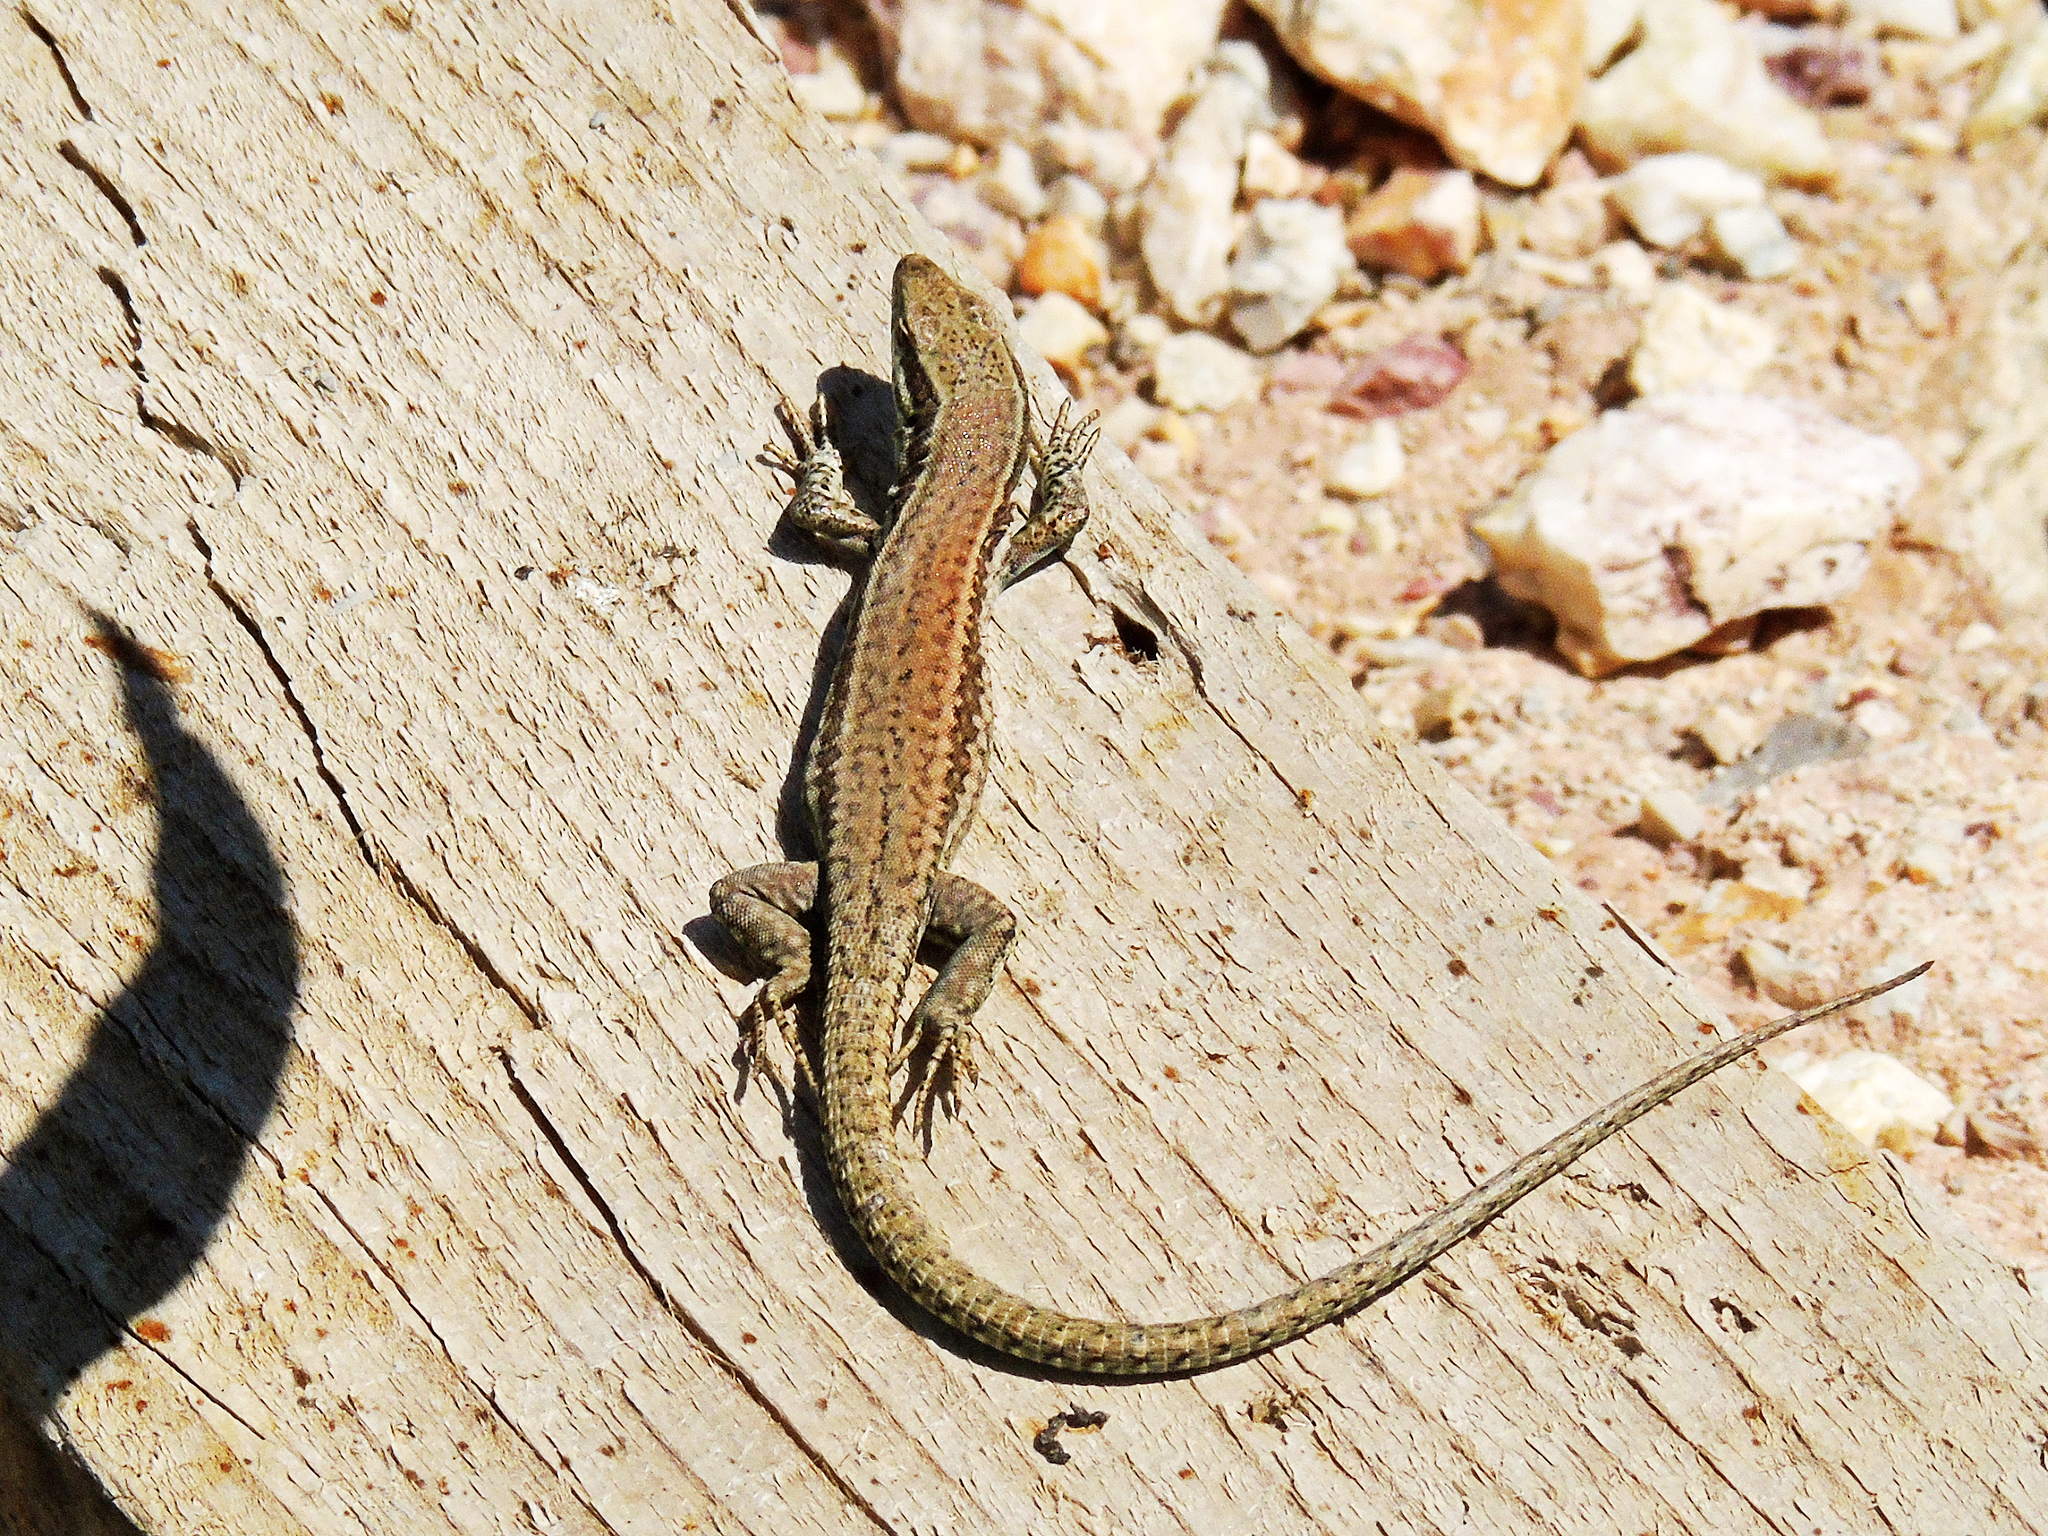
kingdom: Animalia
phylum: Chordata
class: Squamata
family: Lacertidae
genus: Podarcis
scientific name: Podarcis muralis
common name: Common wall lizard
